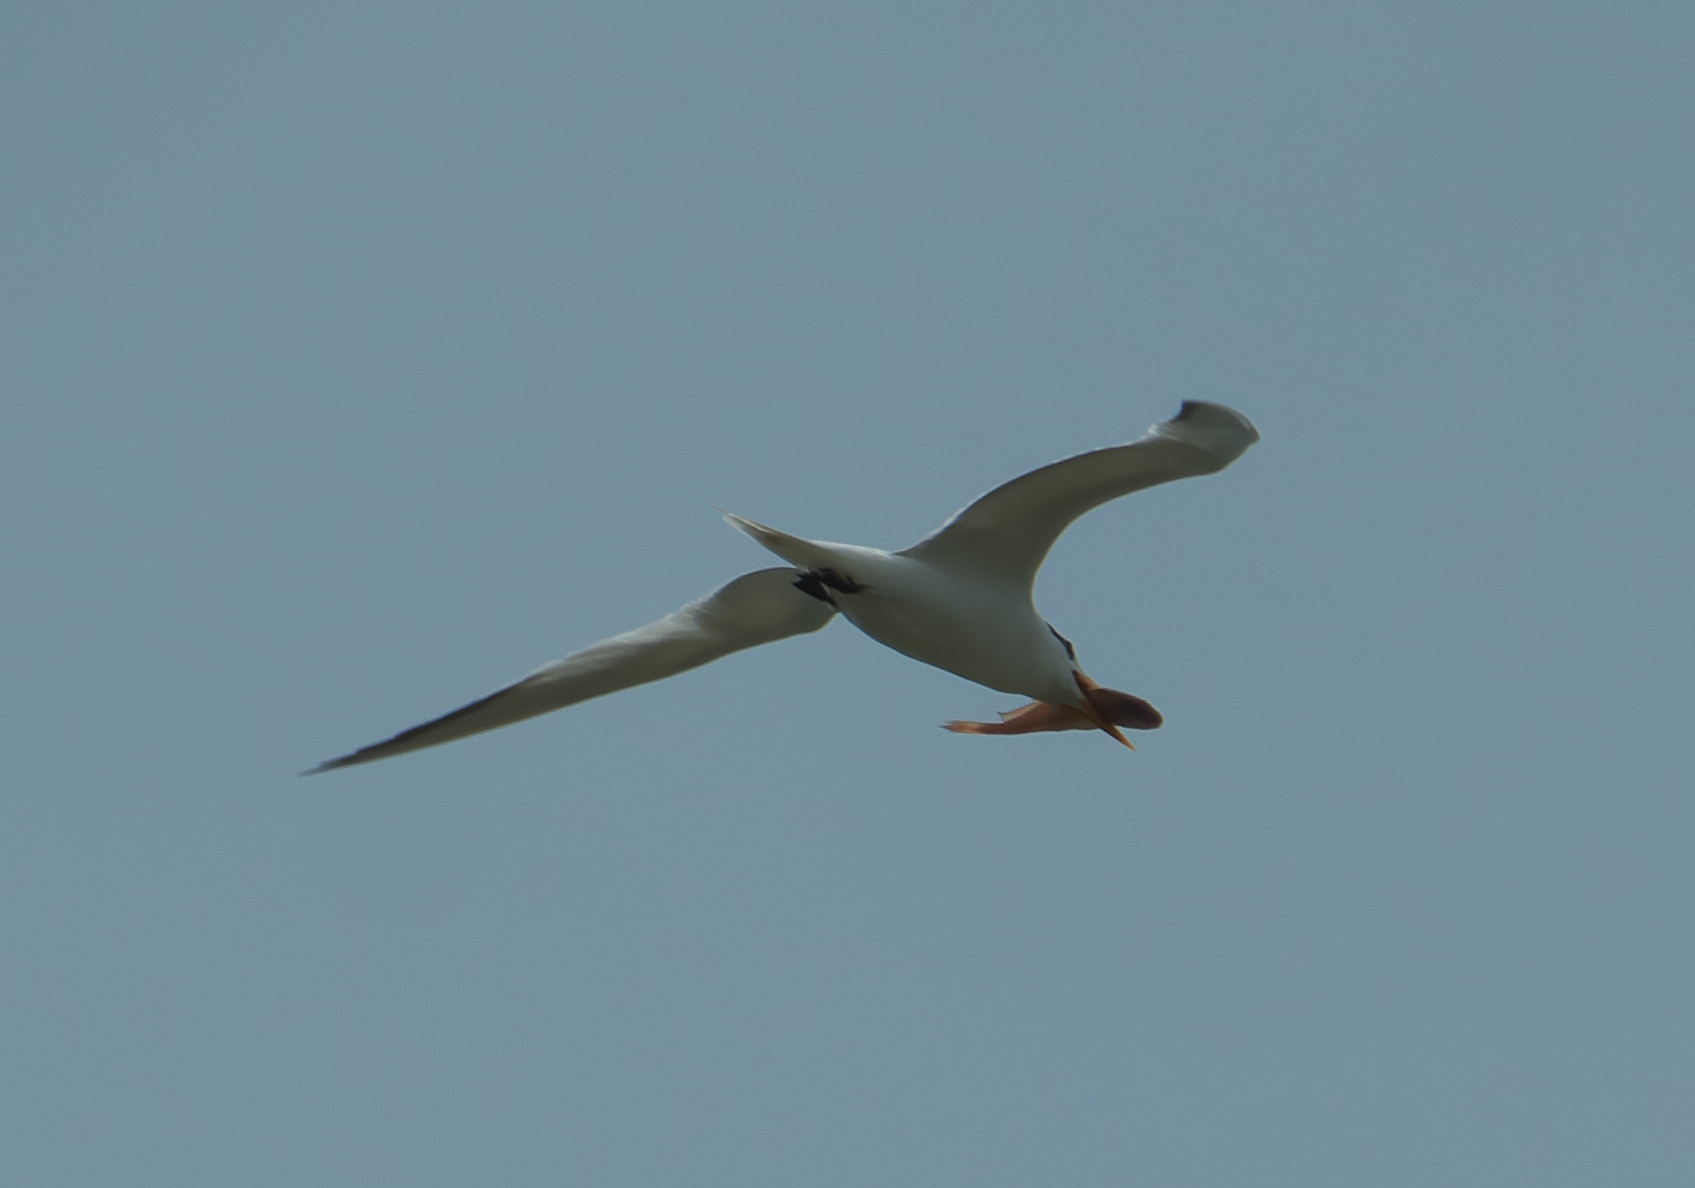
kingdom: Animalia
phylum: Chordata
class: Aves
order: Charadriiformes
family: Laridae
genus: Thalasseus
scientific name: Thalasseus maximus
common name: Royal tern
